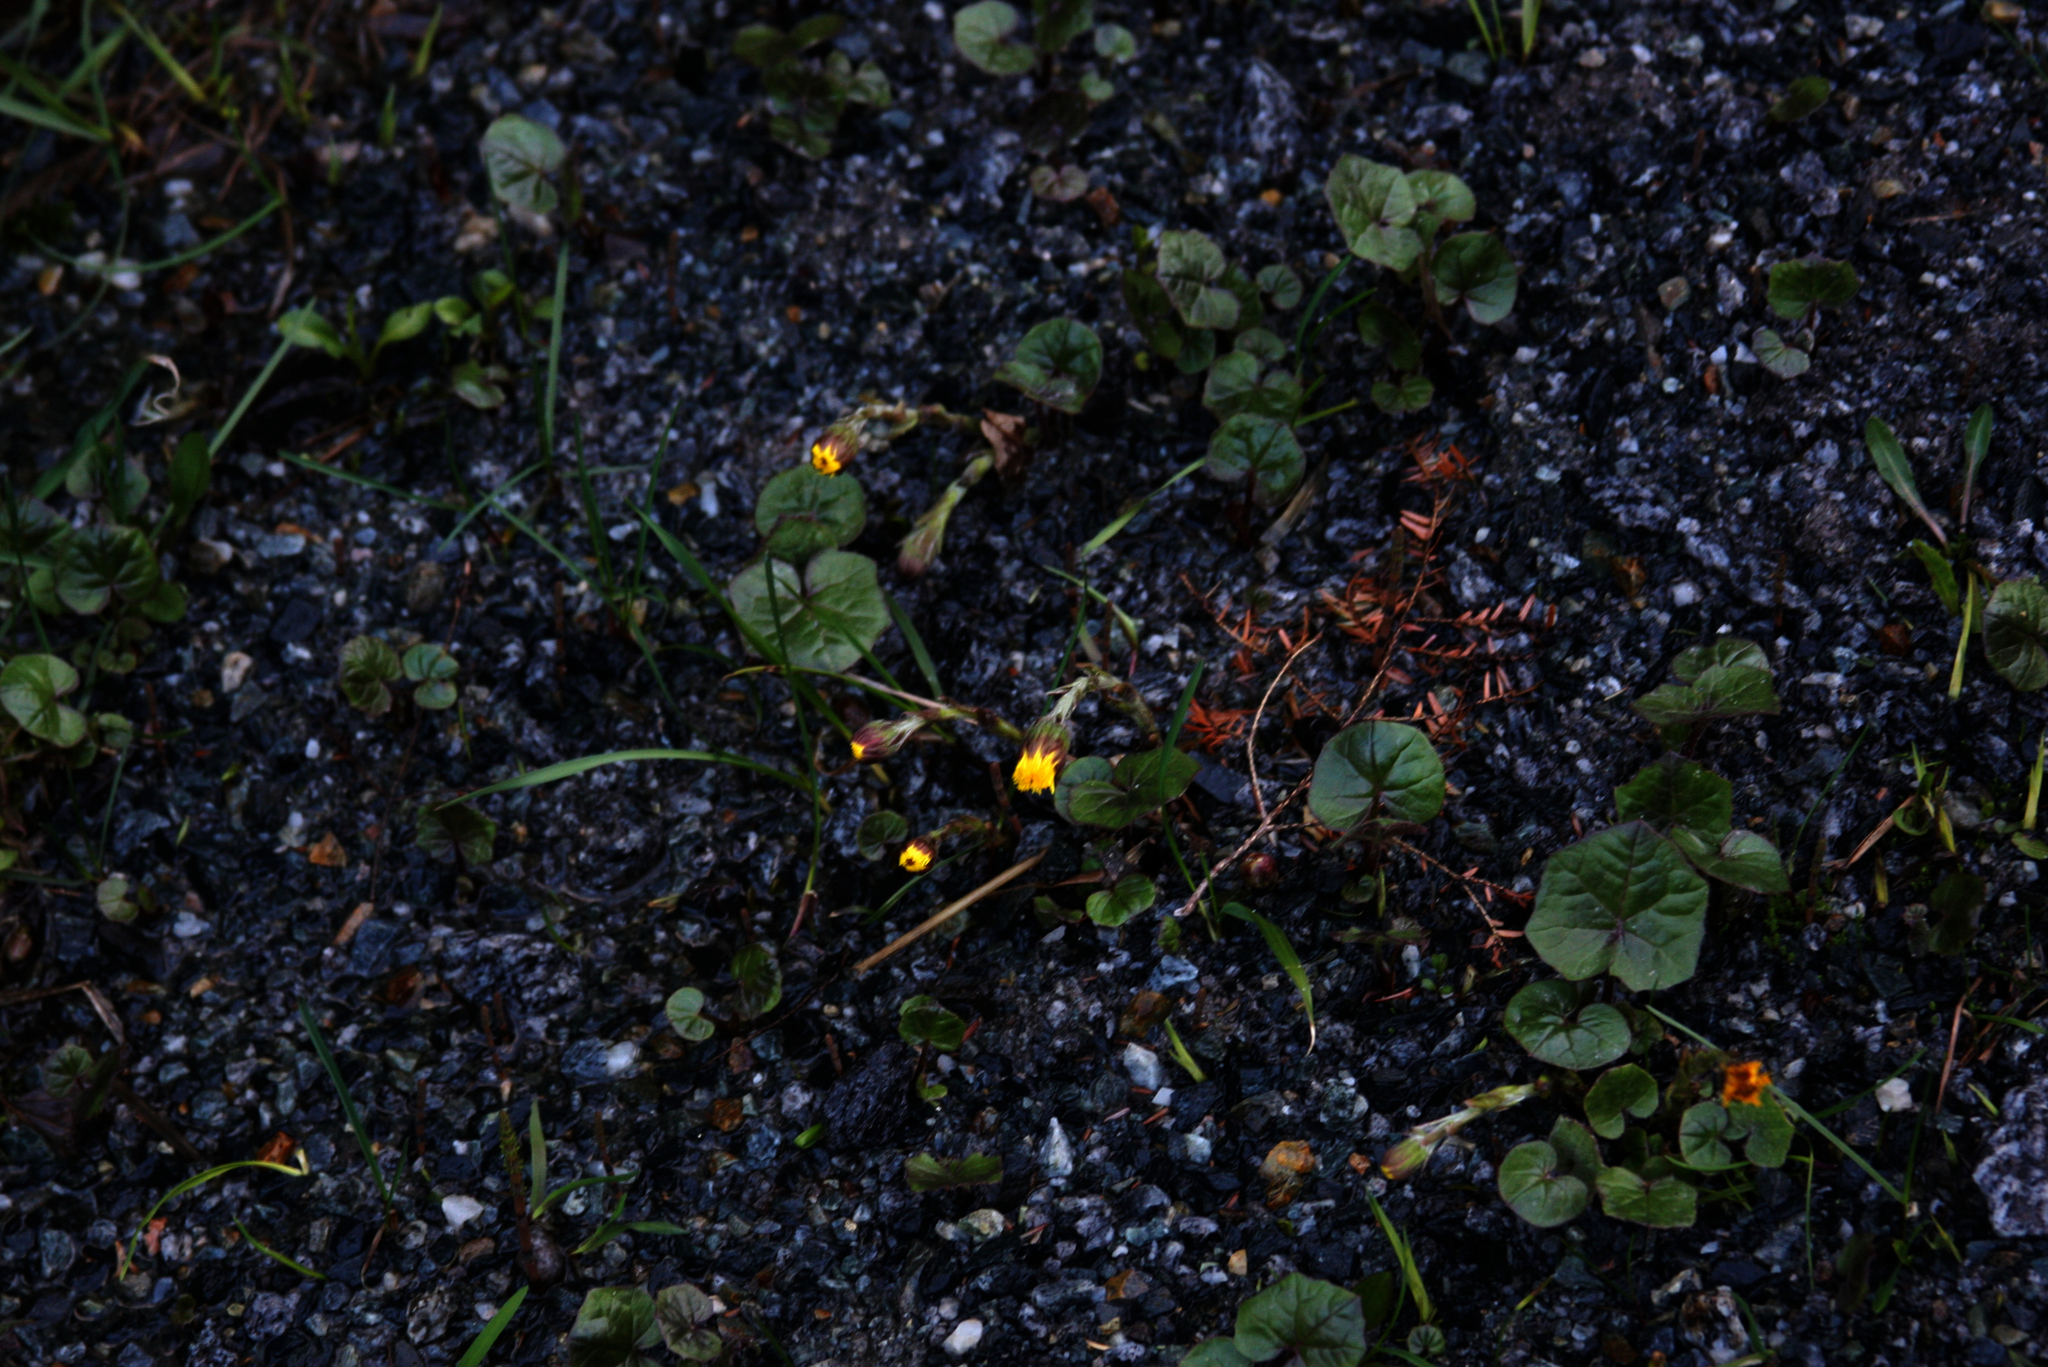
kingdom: Plantae
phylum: Tracheophyta
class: Magnoliopsida
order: Asterales
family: Asteraceae
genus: Tussilago
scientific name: Tussilago farfara
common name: Coltsfoot
